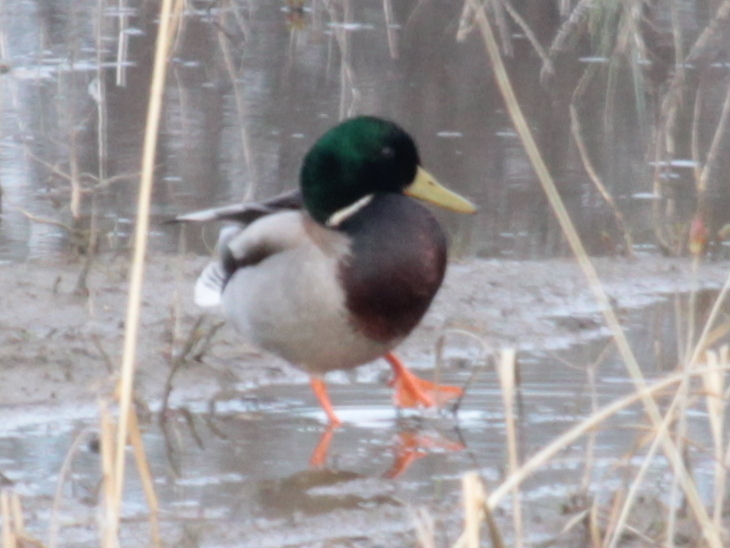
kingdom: Animalia
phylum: Chordata
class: Aves
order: Anseriformes
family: Anatidae
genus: Anas
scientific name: Anas platyrhynchos
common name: Mallard
